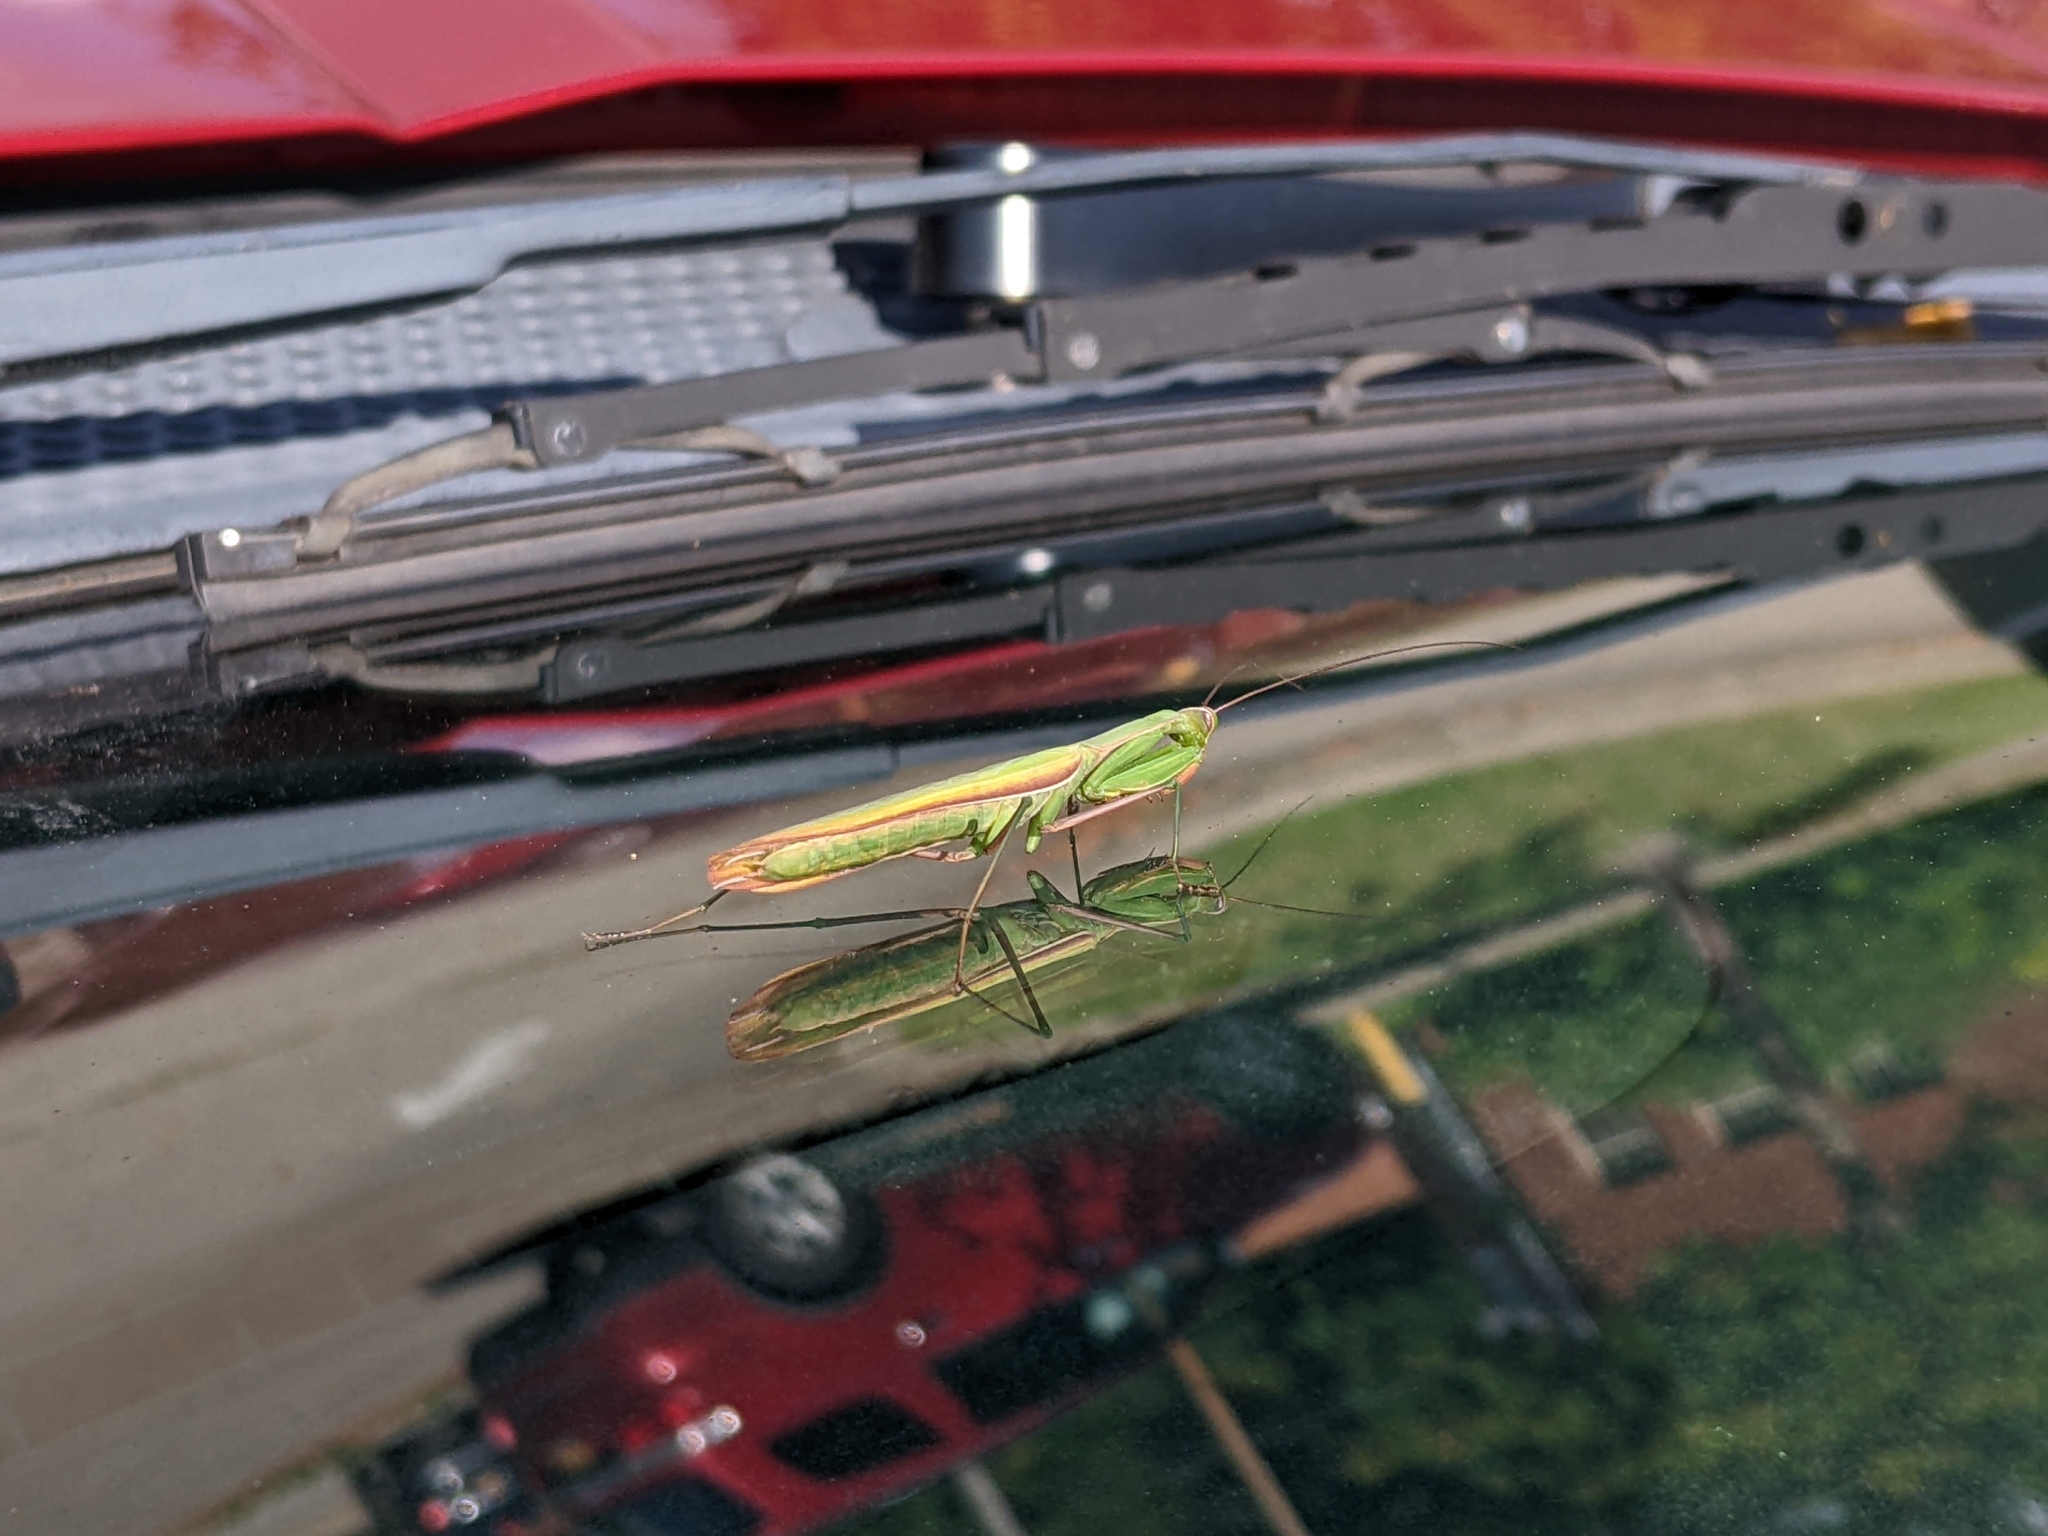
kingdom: Animalia
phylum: Arthropoda
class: Insecta
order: Mantodea
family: Mantidae
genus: Mantis
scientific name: Mantis religiosa
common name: Praying mantis
